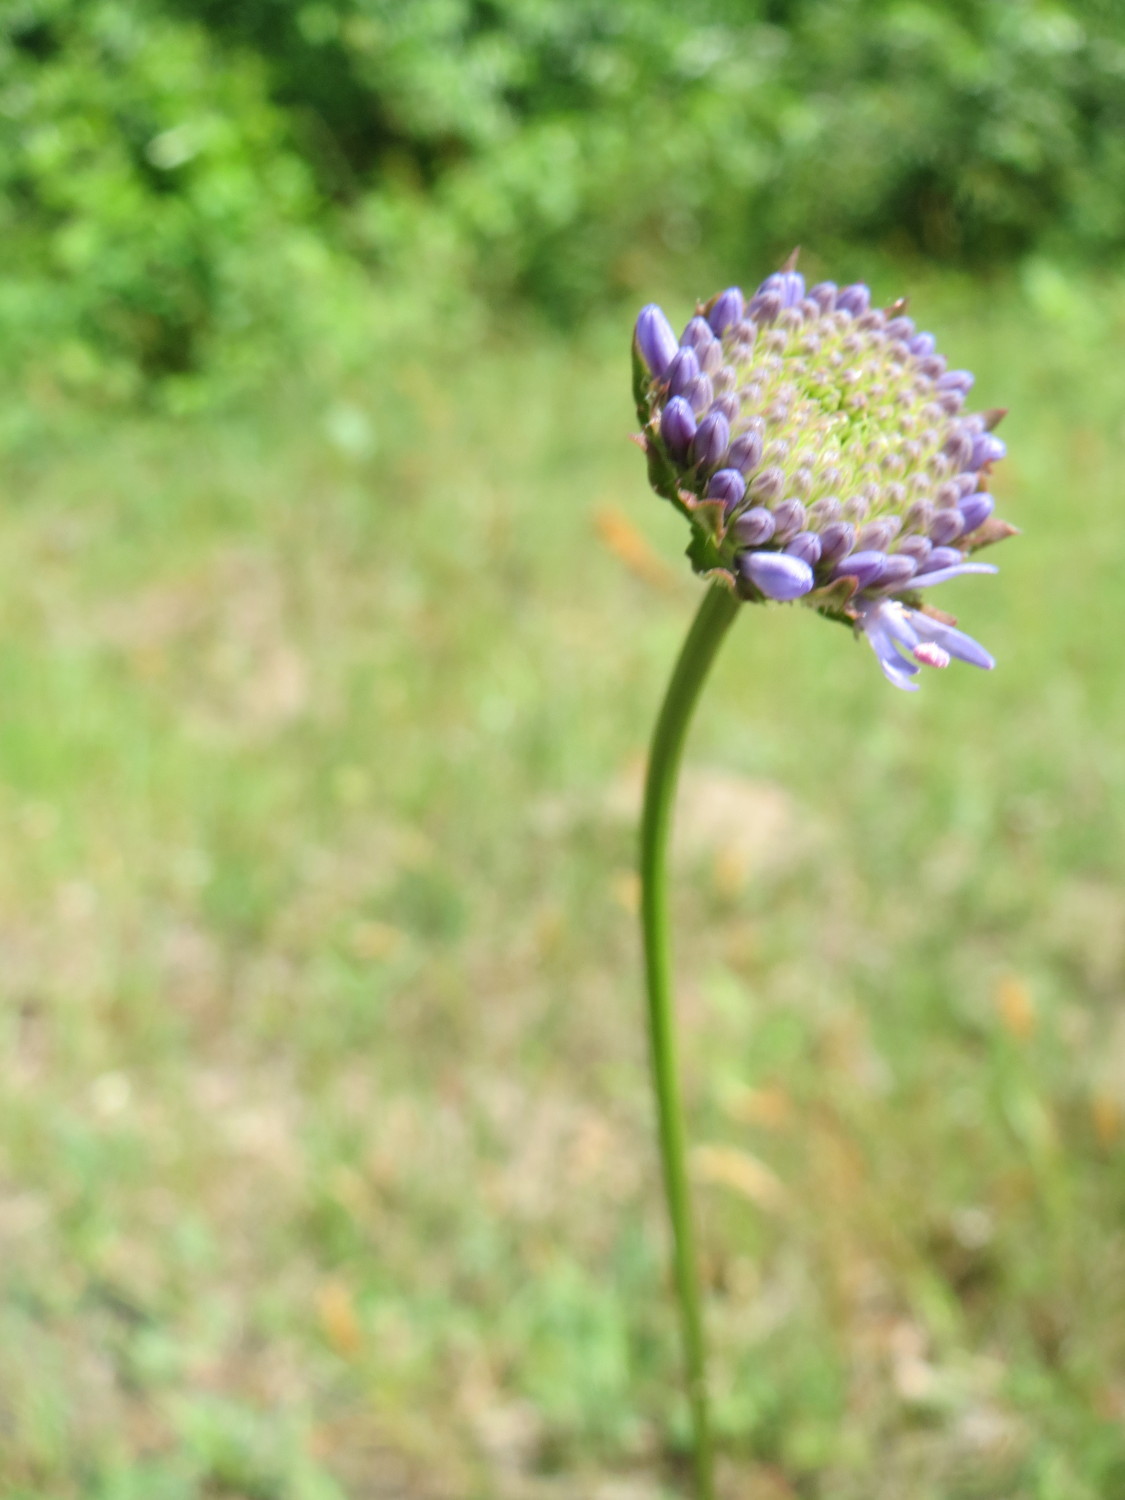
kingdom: Plantae
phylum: Tracheophyta
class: Magnoliopsida
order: Asterales
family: Campanulaceae
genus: Jasione
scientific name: Jasione montana
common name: Sheep's-bit
